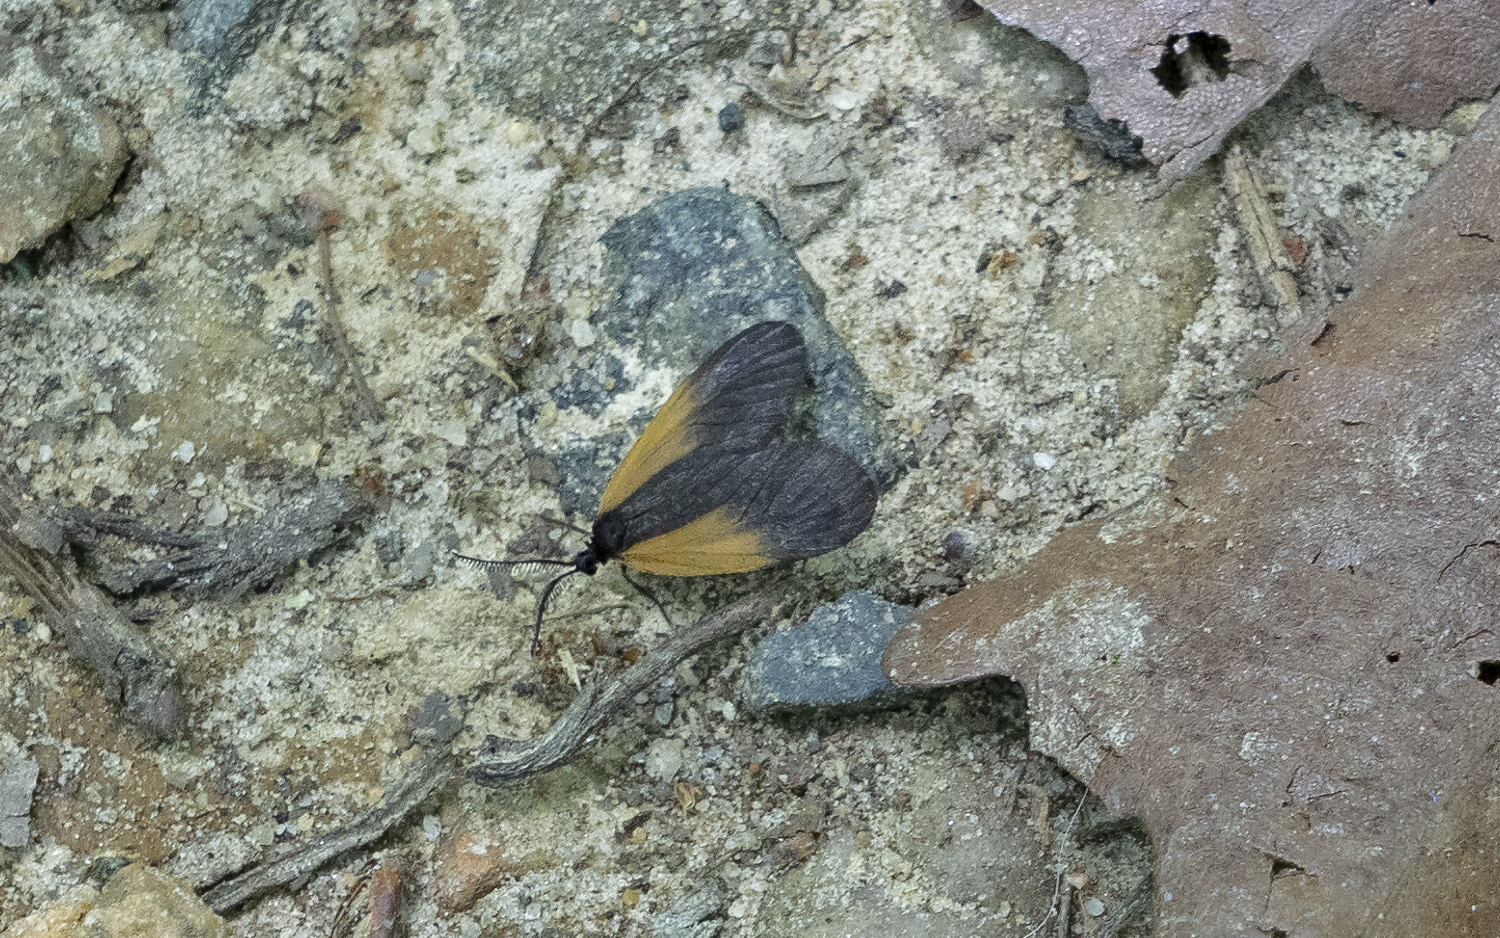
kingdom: Animalia
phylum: Arthropoda
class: Insecta
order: Lepidoptera
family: Zygaenidae
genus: Malthaca
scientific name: Malthaca dimidiata
